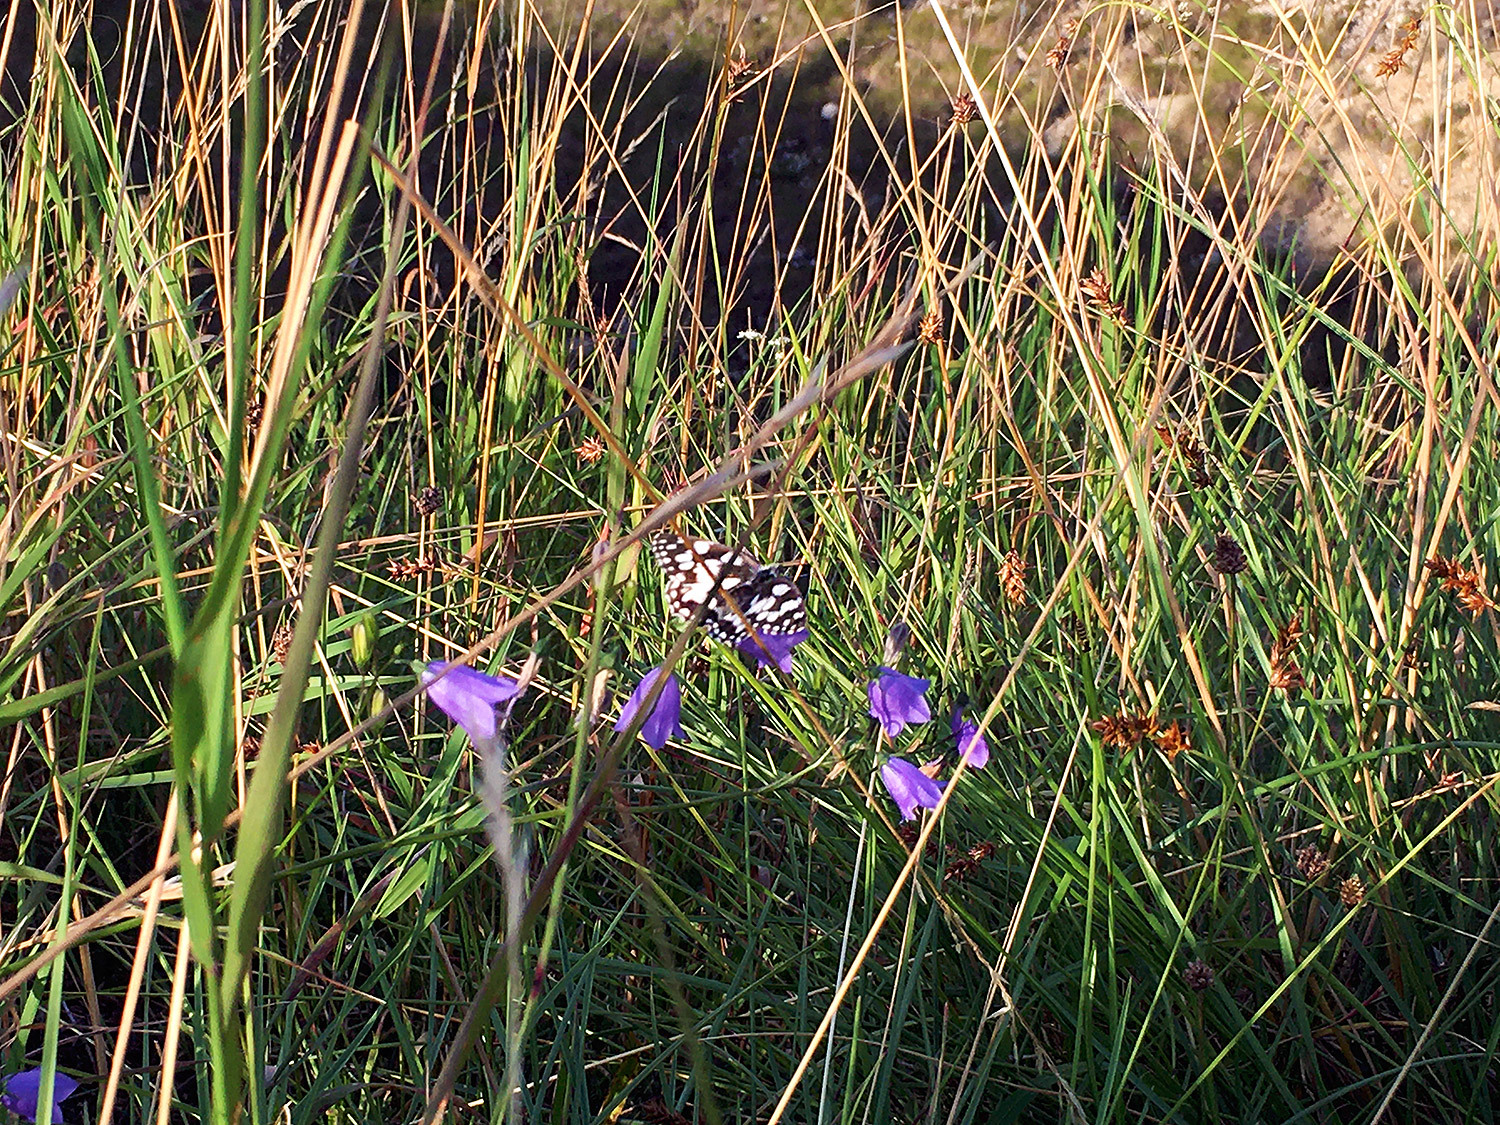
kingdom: Animalia
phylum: Arthropoda
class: Insecta
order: Lepidoptera
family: Nymphalidae
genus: Melanargia
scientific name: Melanargia galathea
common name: Marbled white
